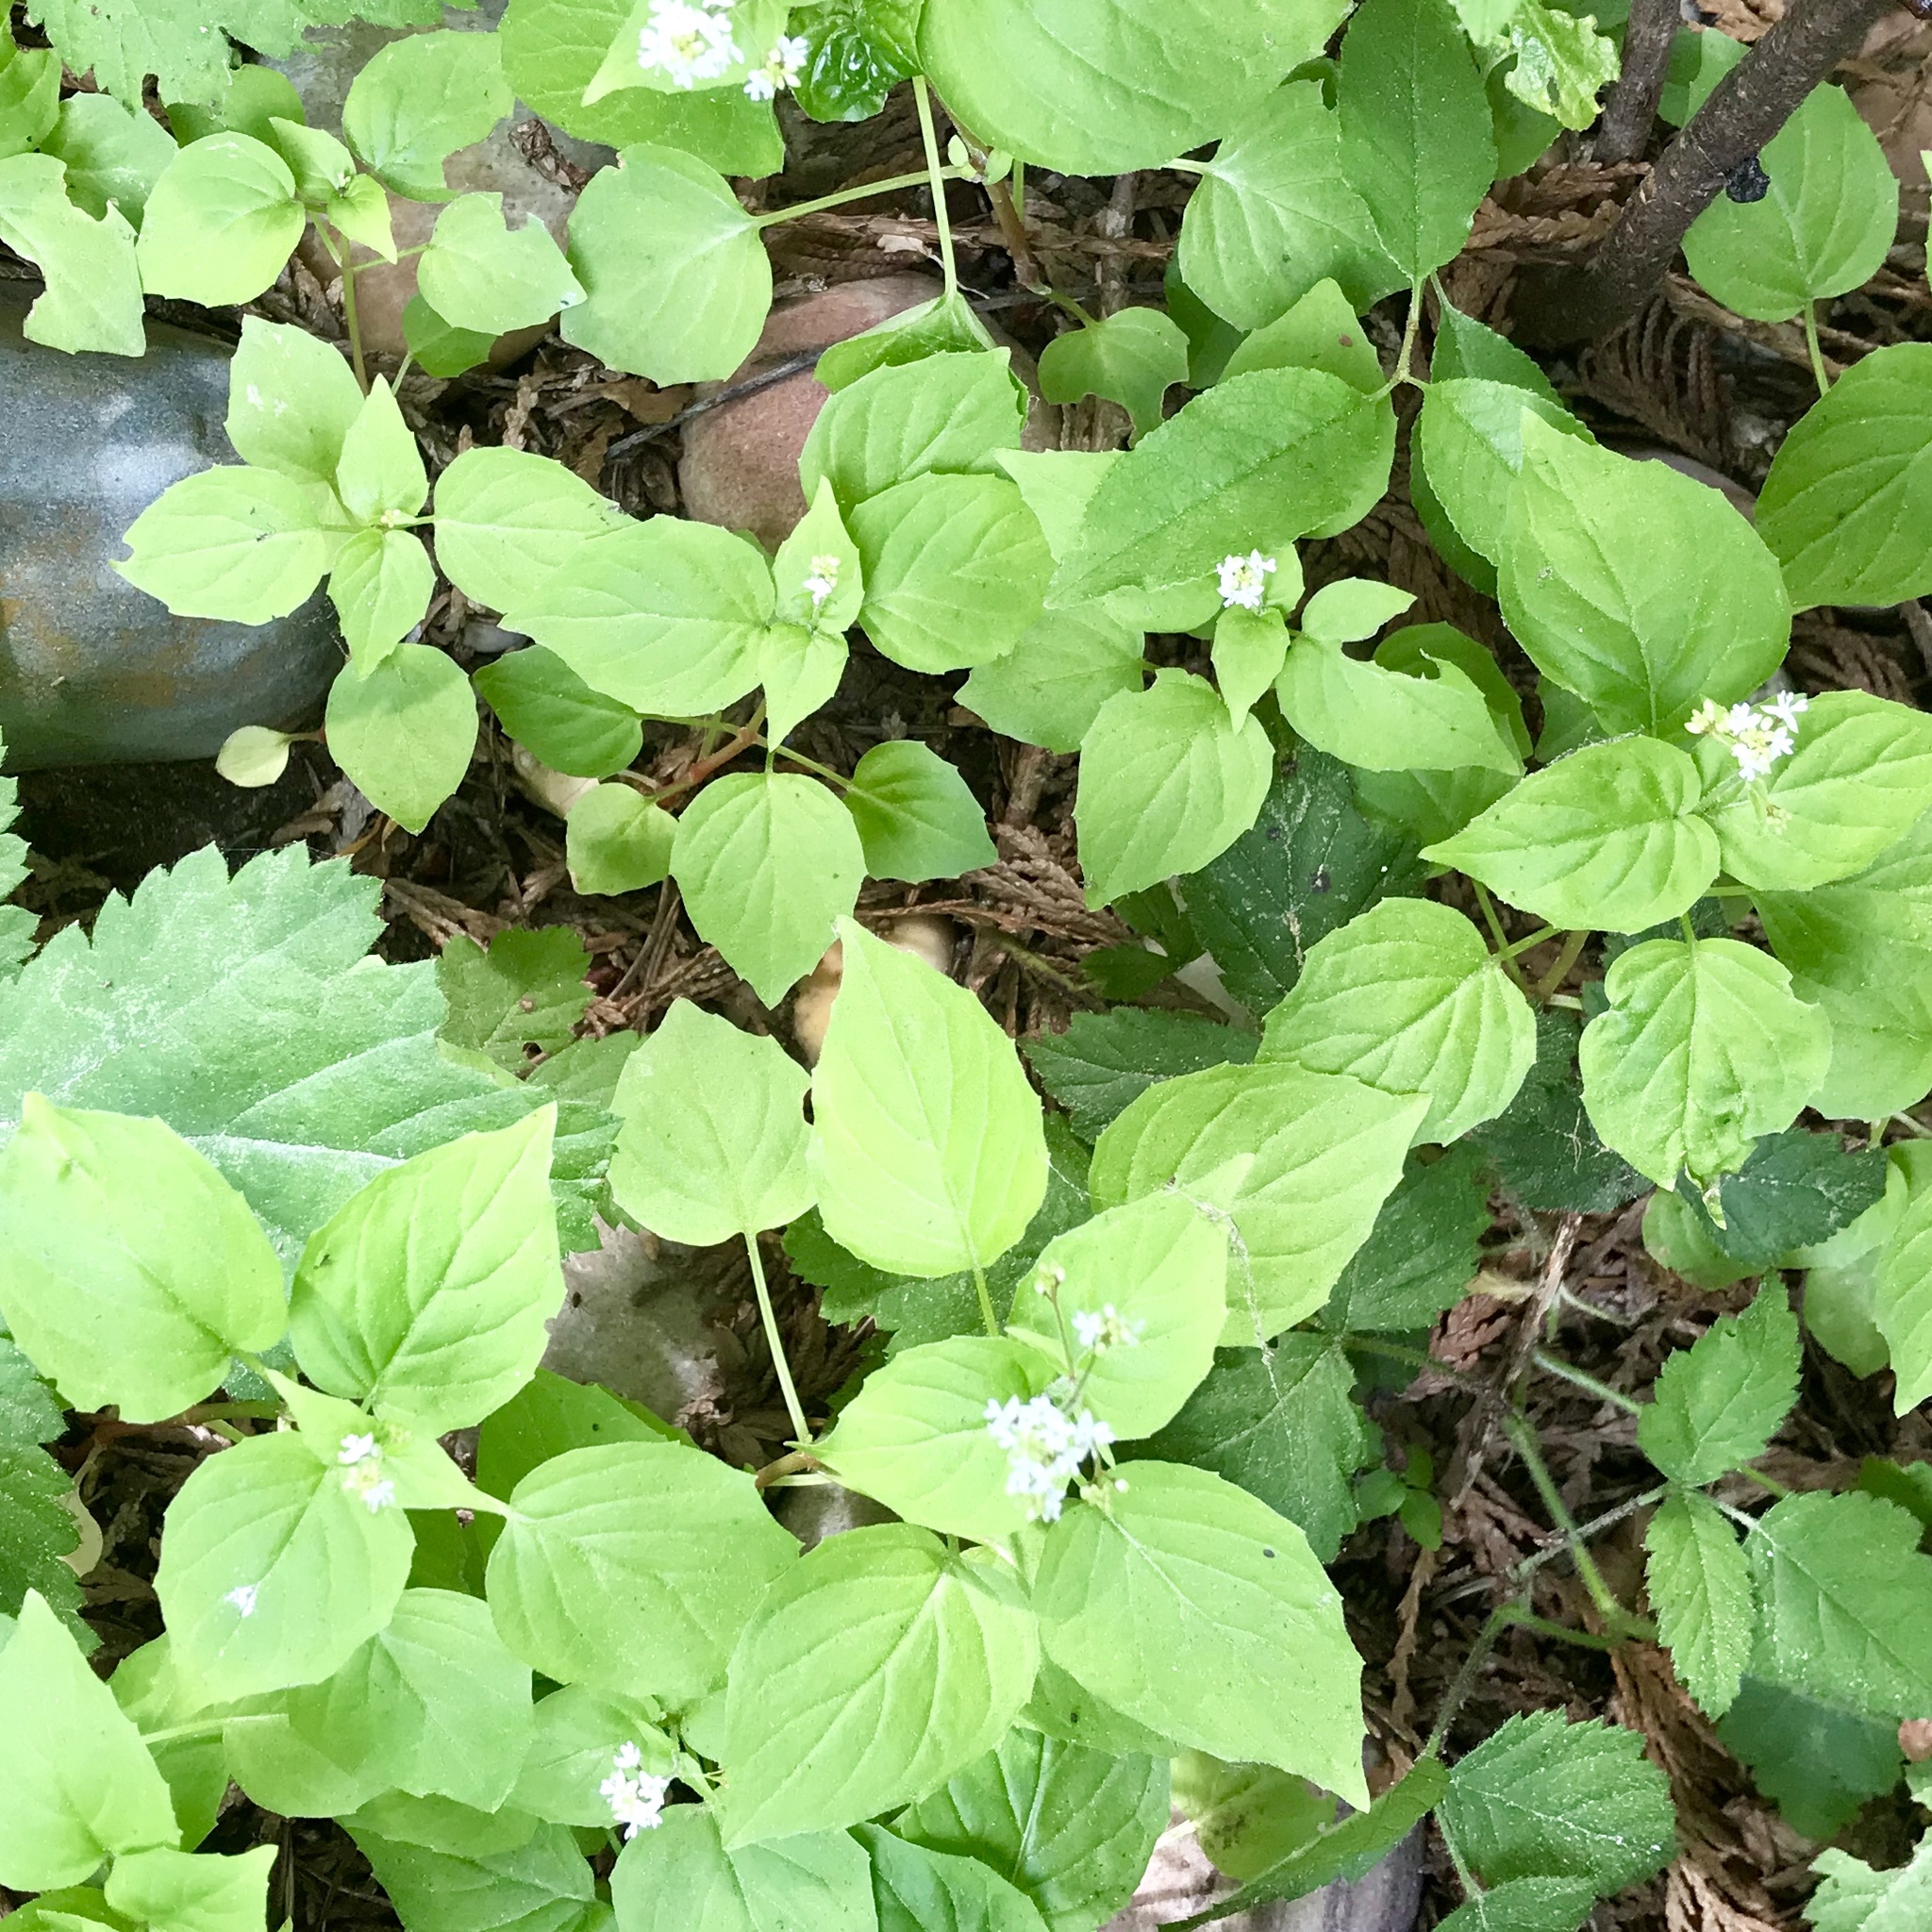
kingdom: Plantae
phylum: Tracheophyta
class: Magnoliopsida
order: Myrtales
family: Onagraceae
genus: Circaea
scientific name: Circaea alpina
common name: Alpine enchanter's-nightshade
